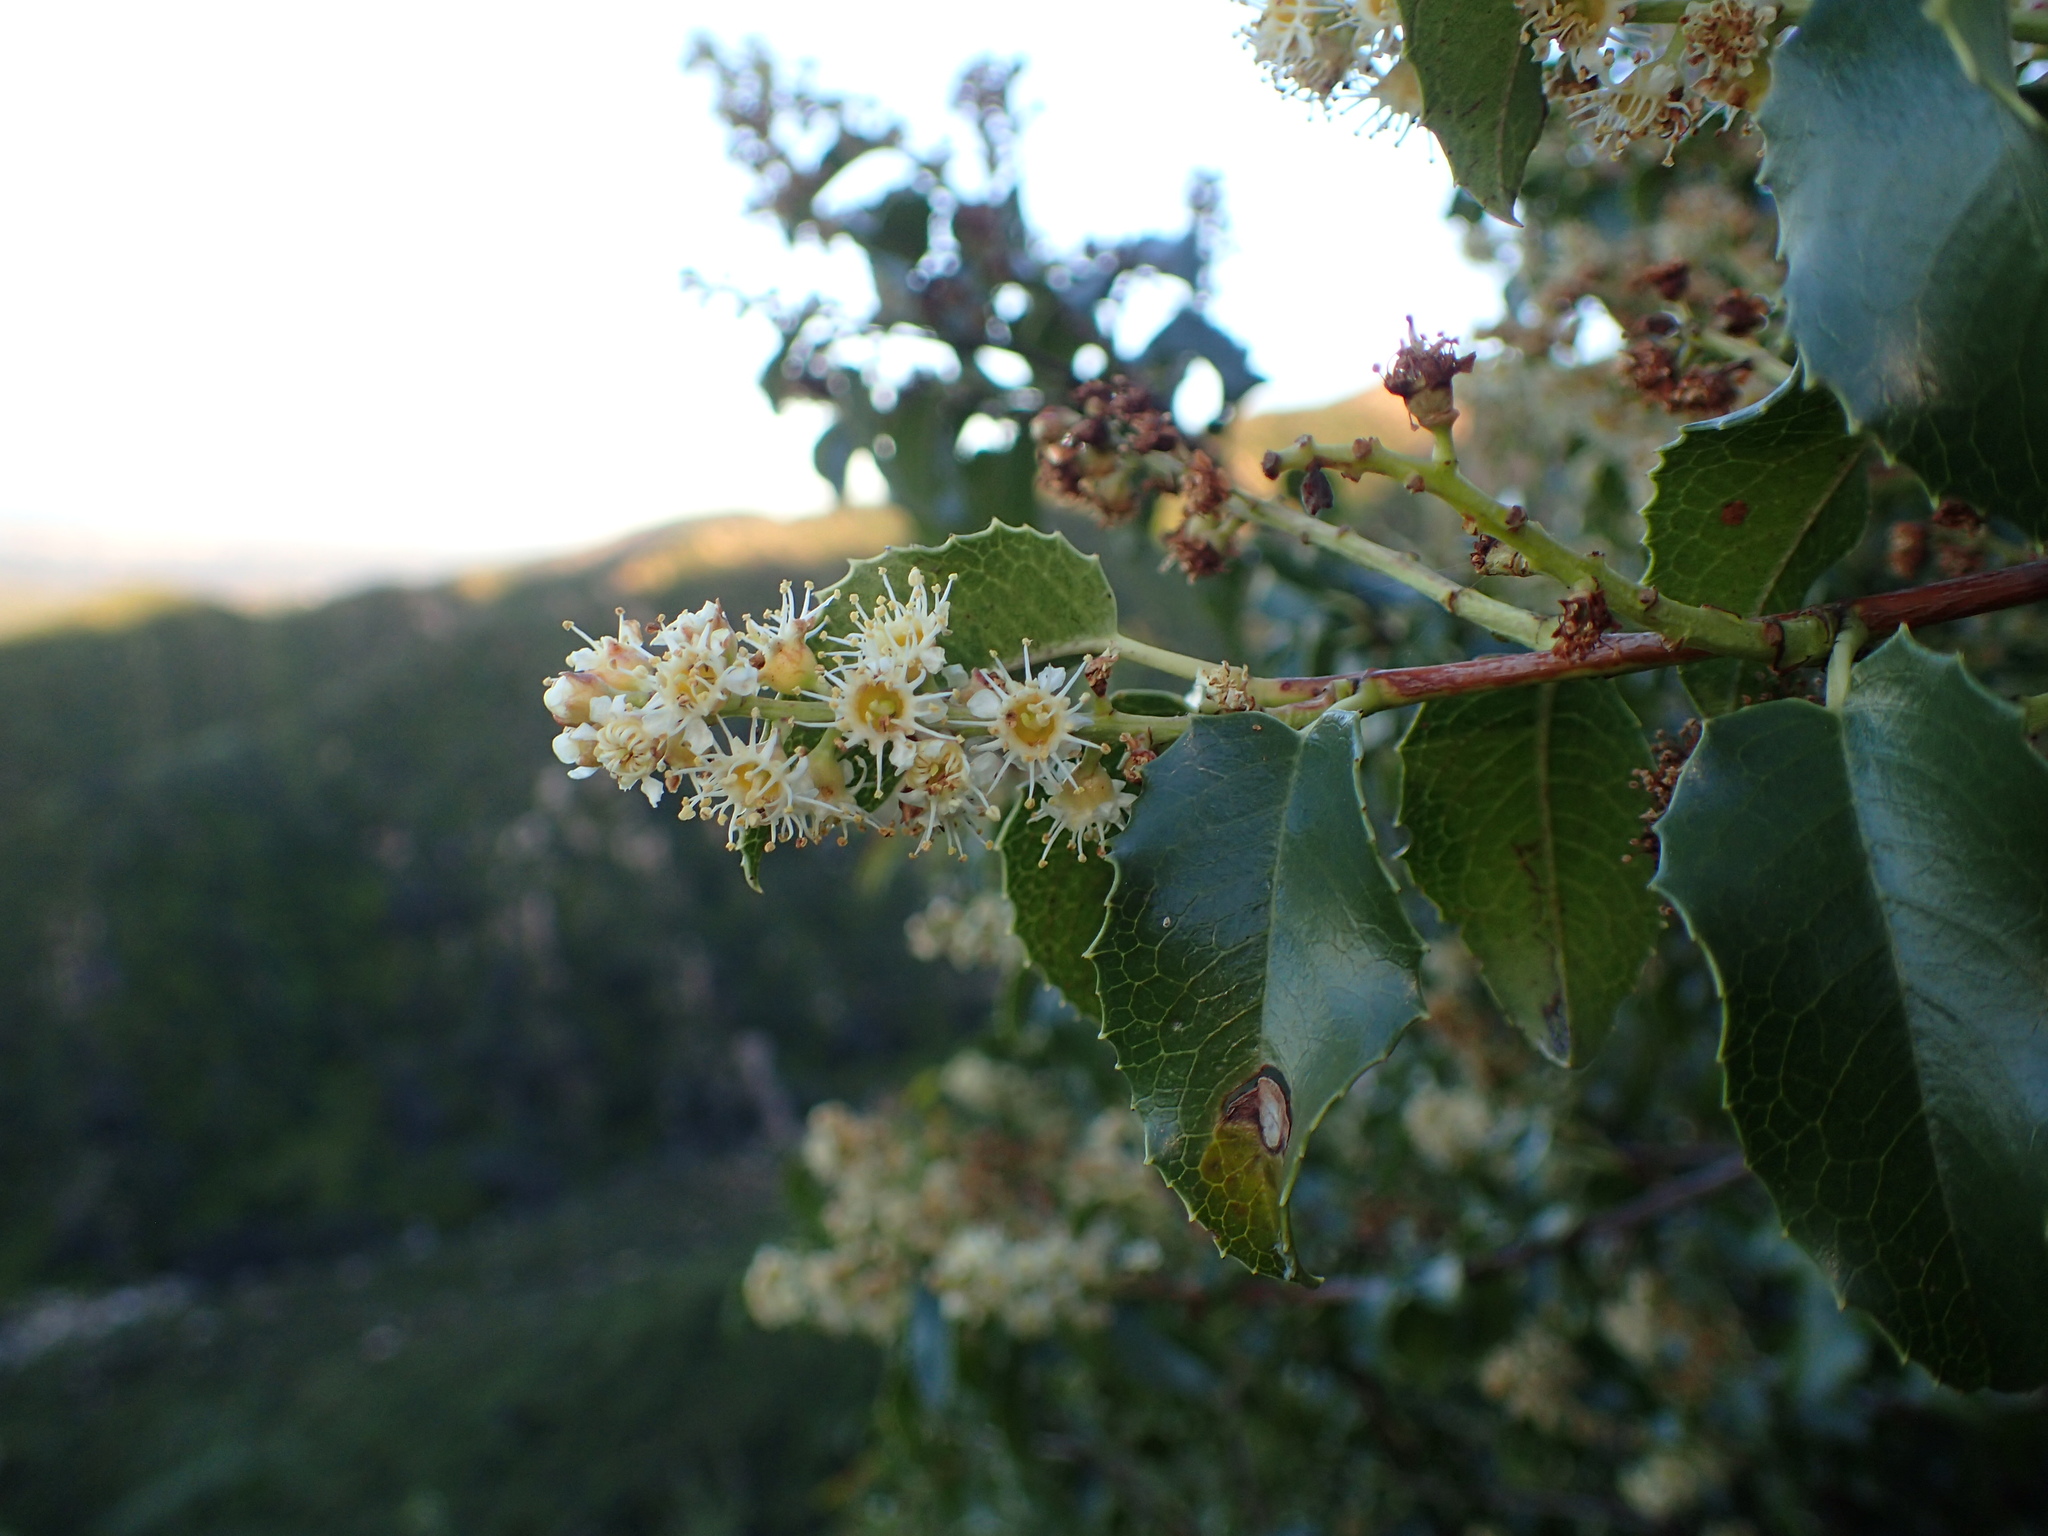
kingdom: Plantae
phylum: Tracheophyta
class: Magnoliopsida
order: Rosales
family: Rosaceae
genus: Prunus
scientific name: Prunus ilicifolia
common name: Hollyleaf cherry
